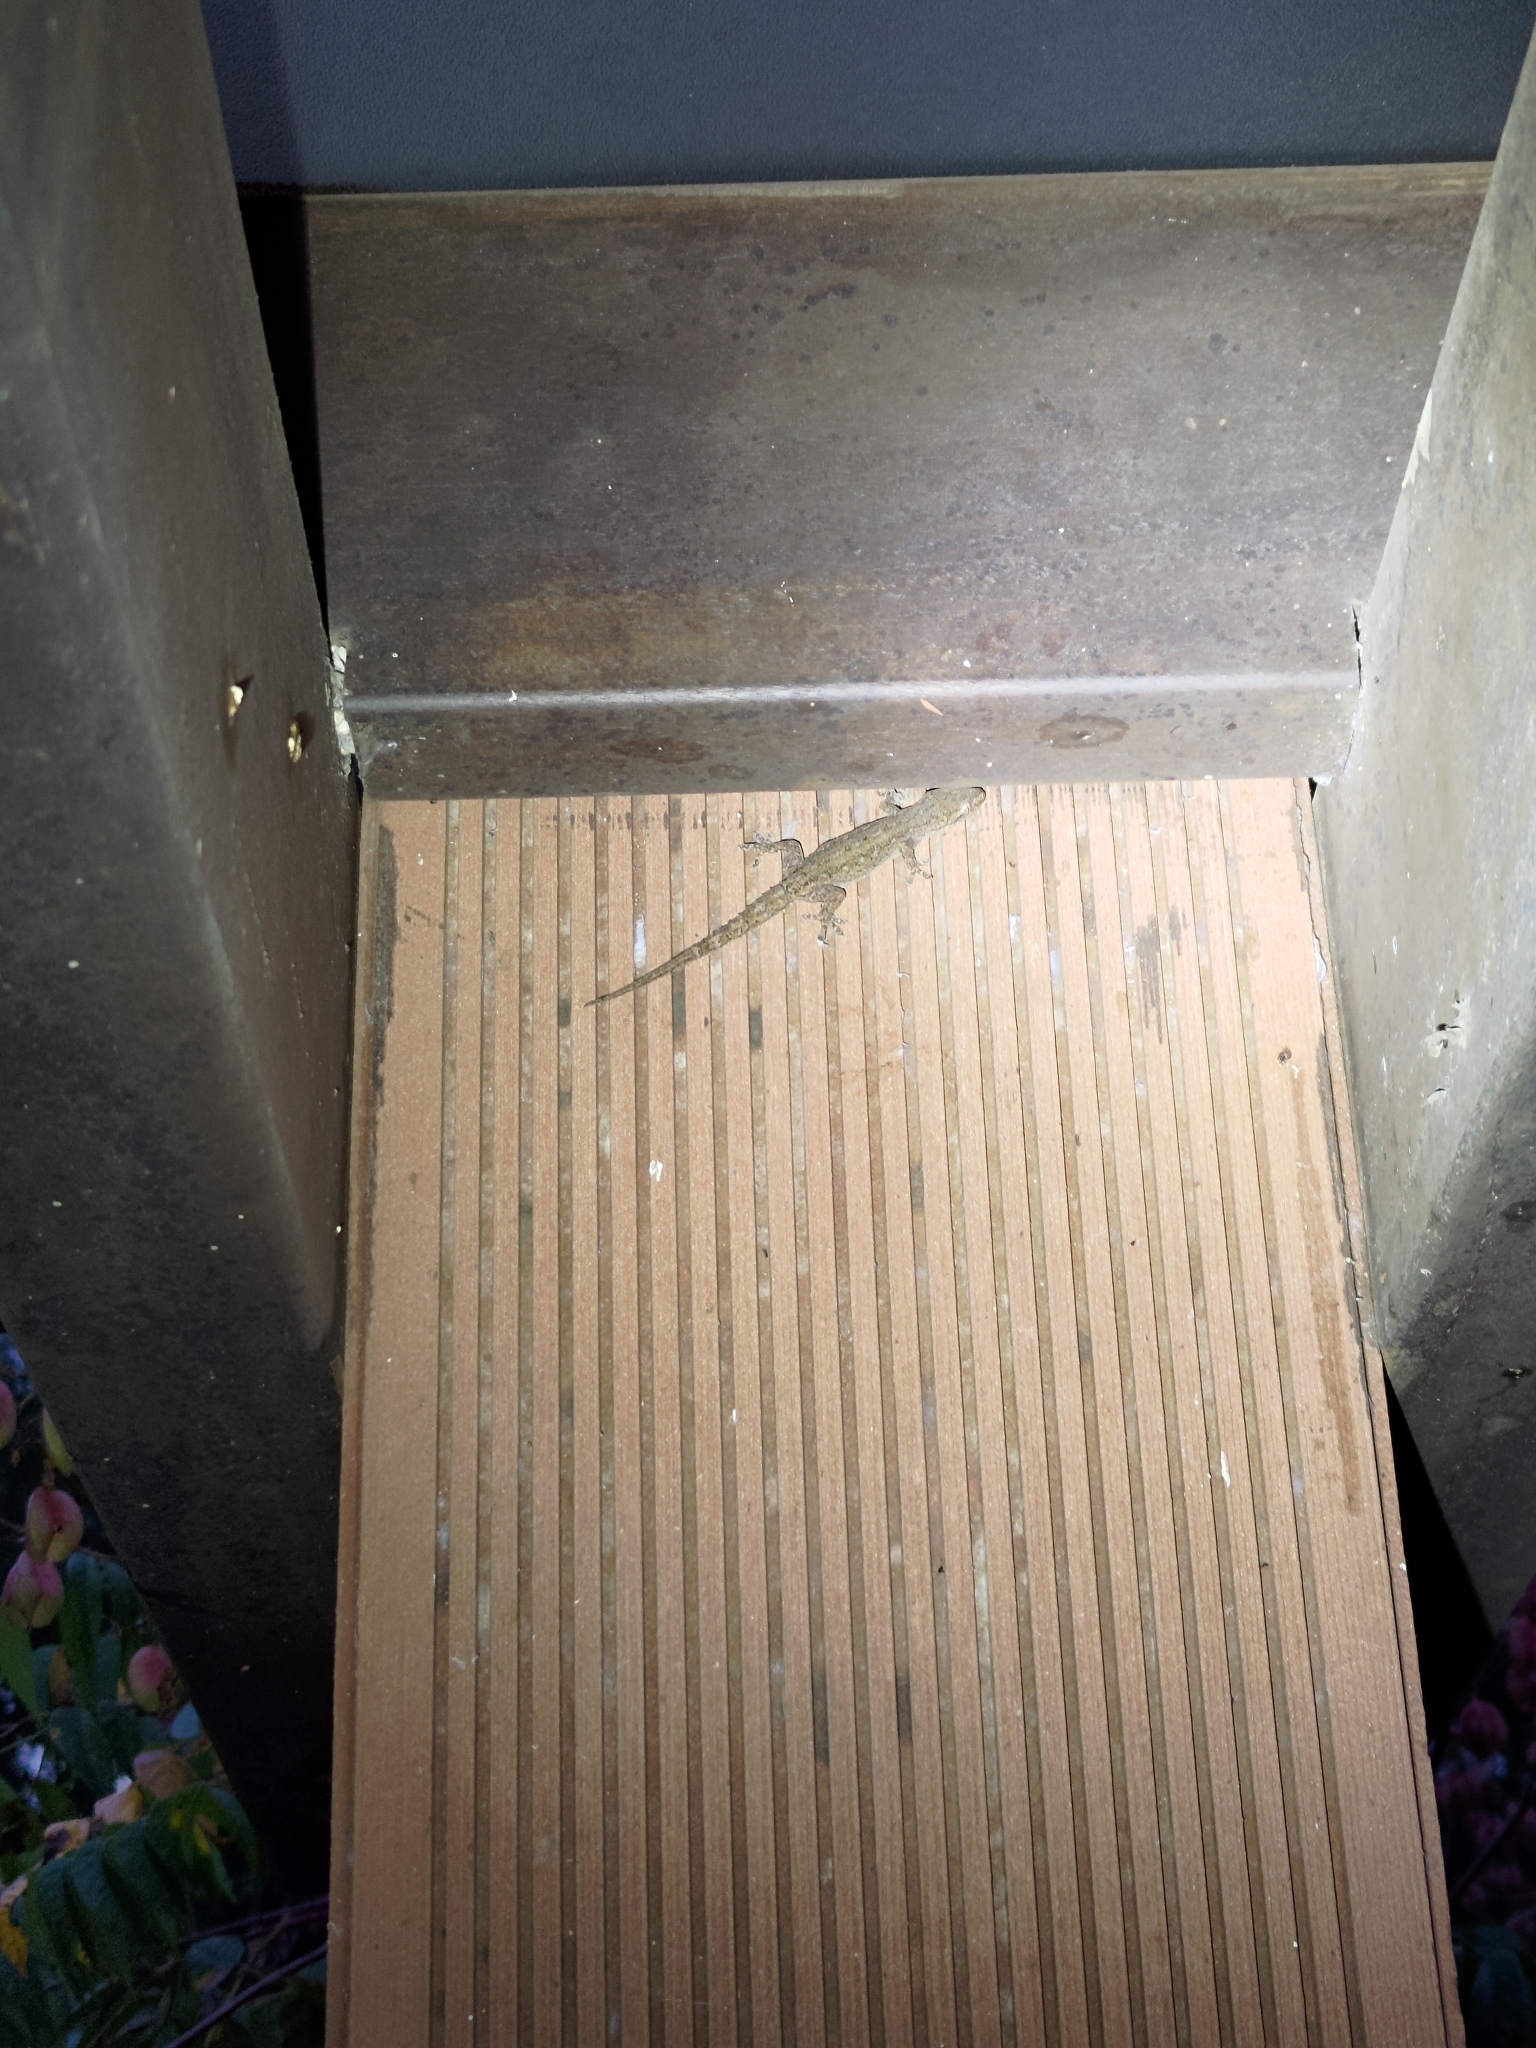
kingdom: Animalia
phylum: Chordata
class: Squamata
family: Gekkonidae
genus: Hemidactylus
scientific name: Hemidactylus frenatus
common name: Common house gecko
